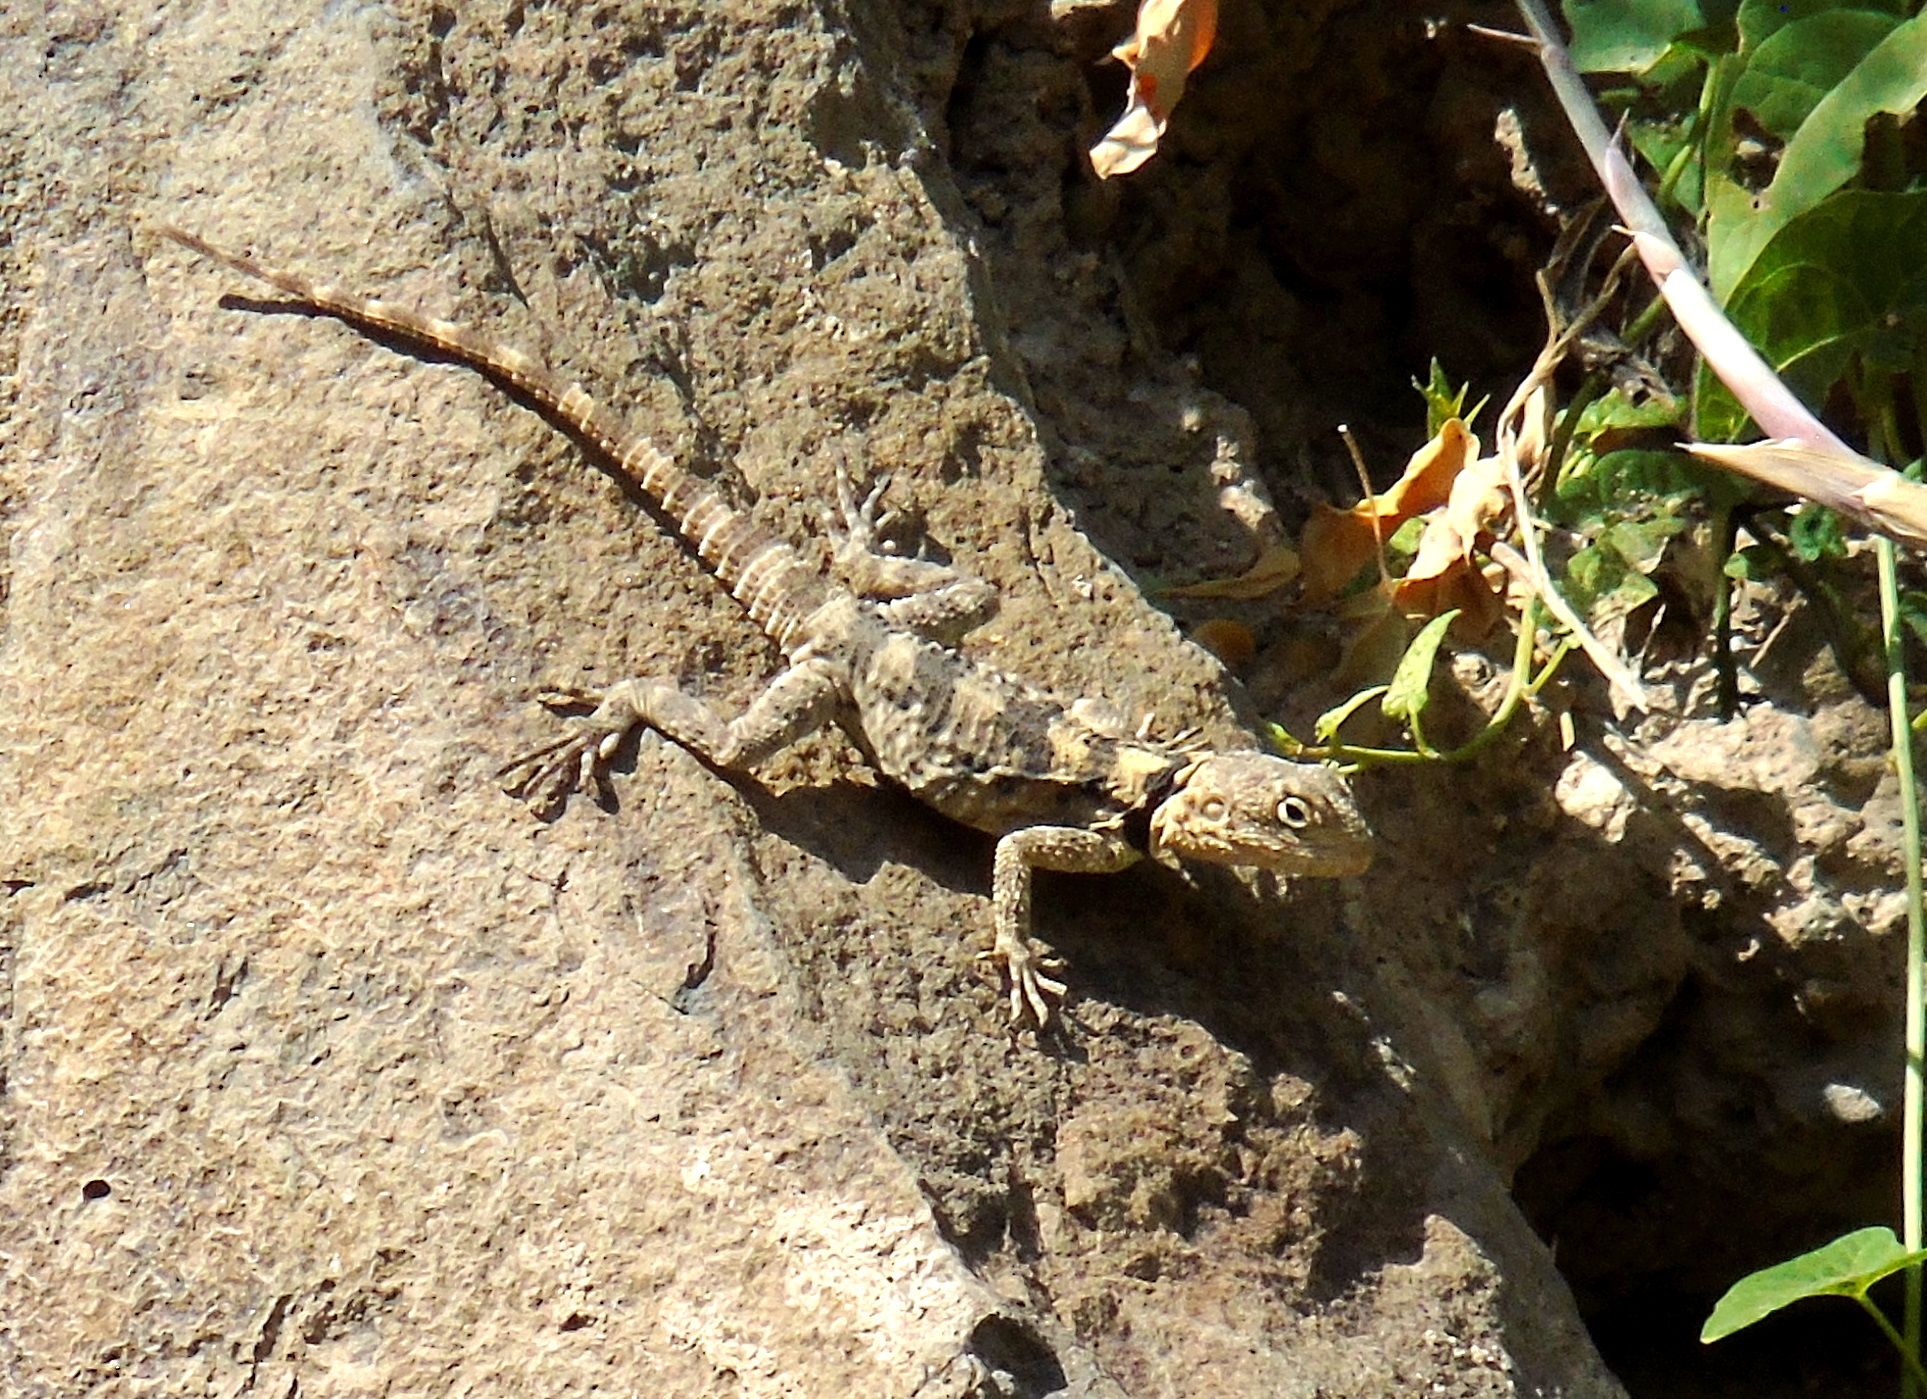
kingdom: Animalia
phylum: Chordata
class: Squamata
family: Agamidae
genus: Stellagama
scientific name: Stellagama stellio
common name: Starred agama
